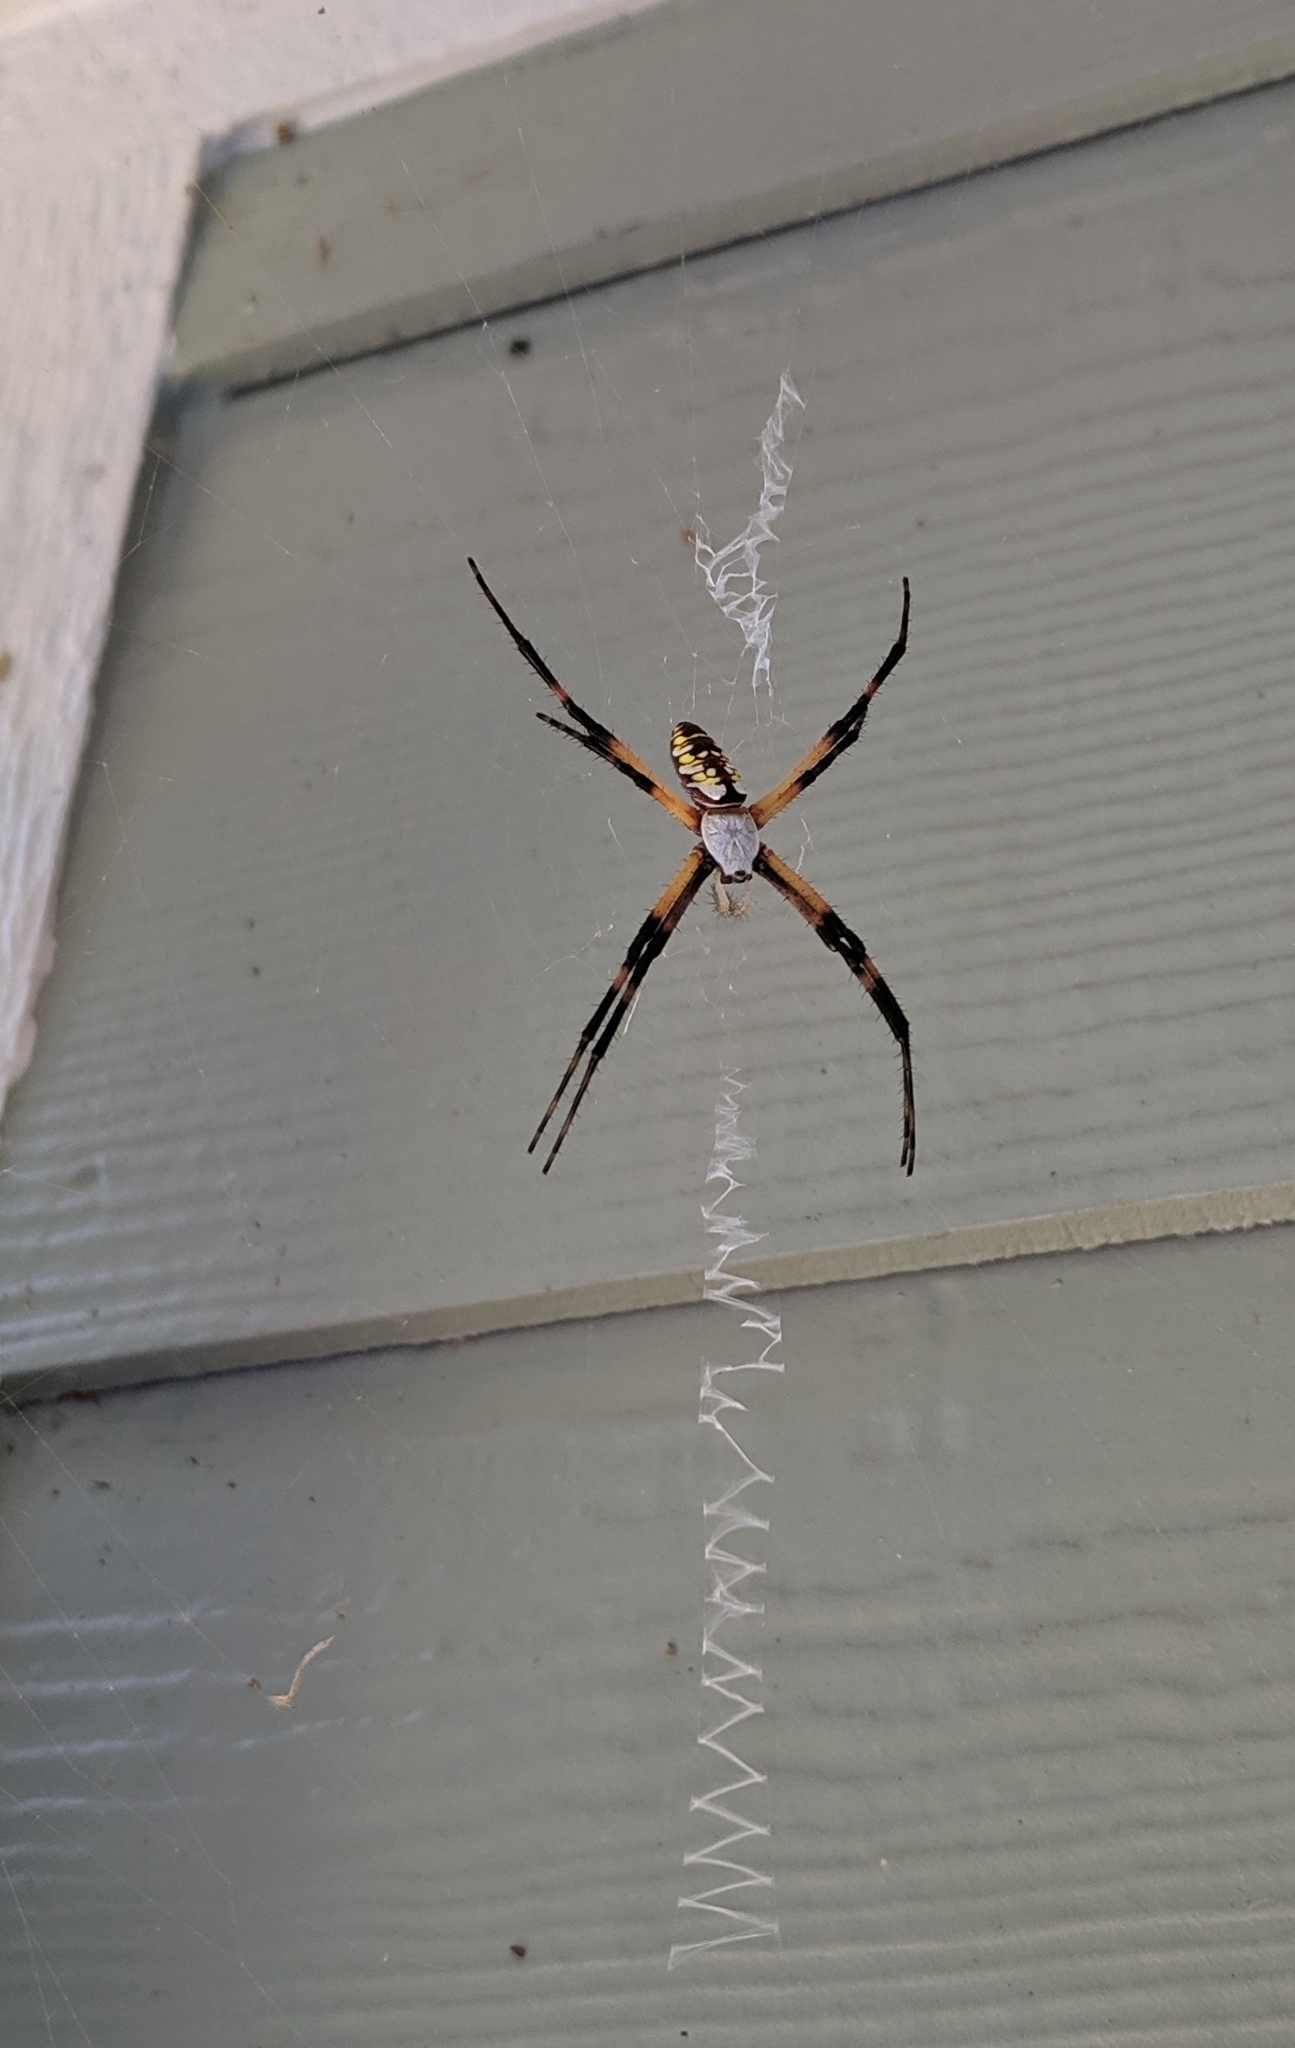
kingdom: Animalia
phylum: Arthropoda
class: Arachnida
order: Araneae
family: Araneidae
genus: Argiope
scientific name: Argiope aurantia
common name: Orb weavers
